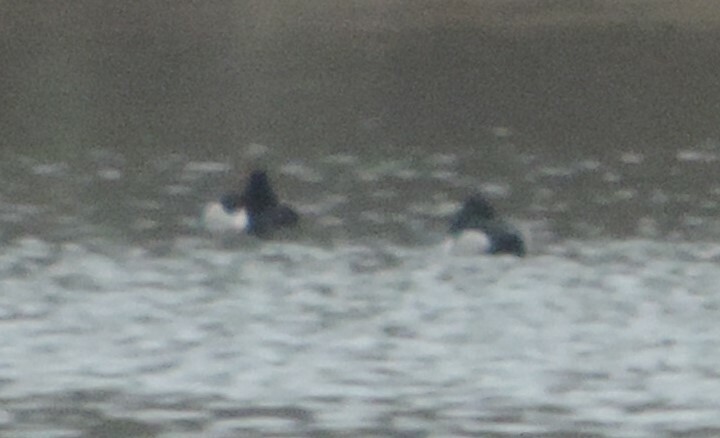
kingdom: Animalia
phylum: Chordata
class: Aves
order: Anseriformes
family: Anatidae
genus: Aythya
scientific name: Aythya collaris
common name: Ring-necked duck
